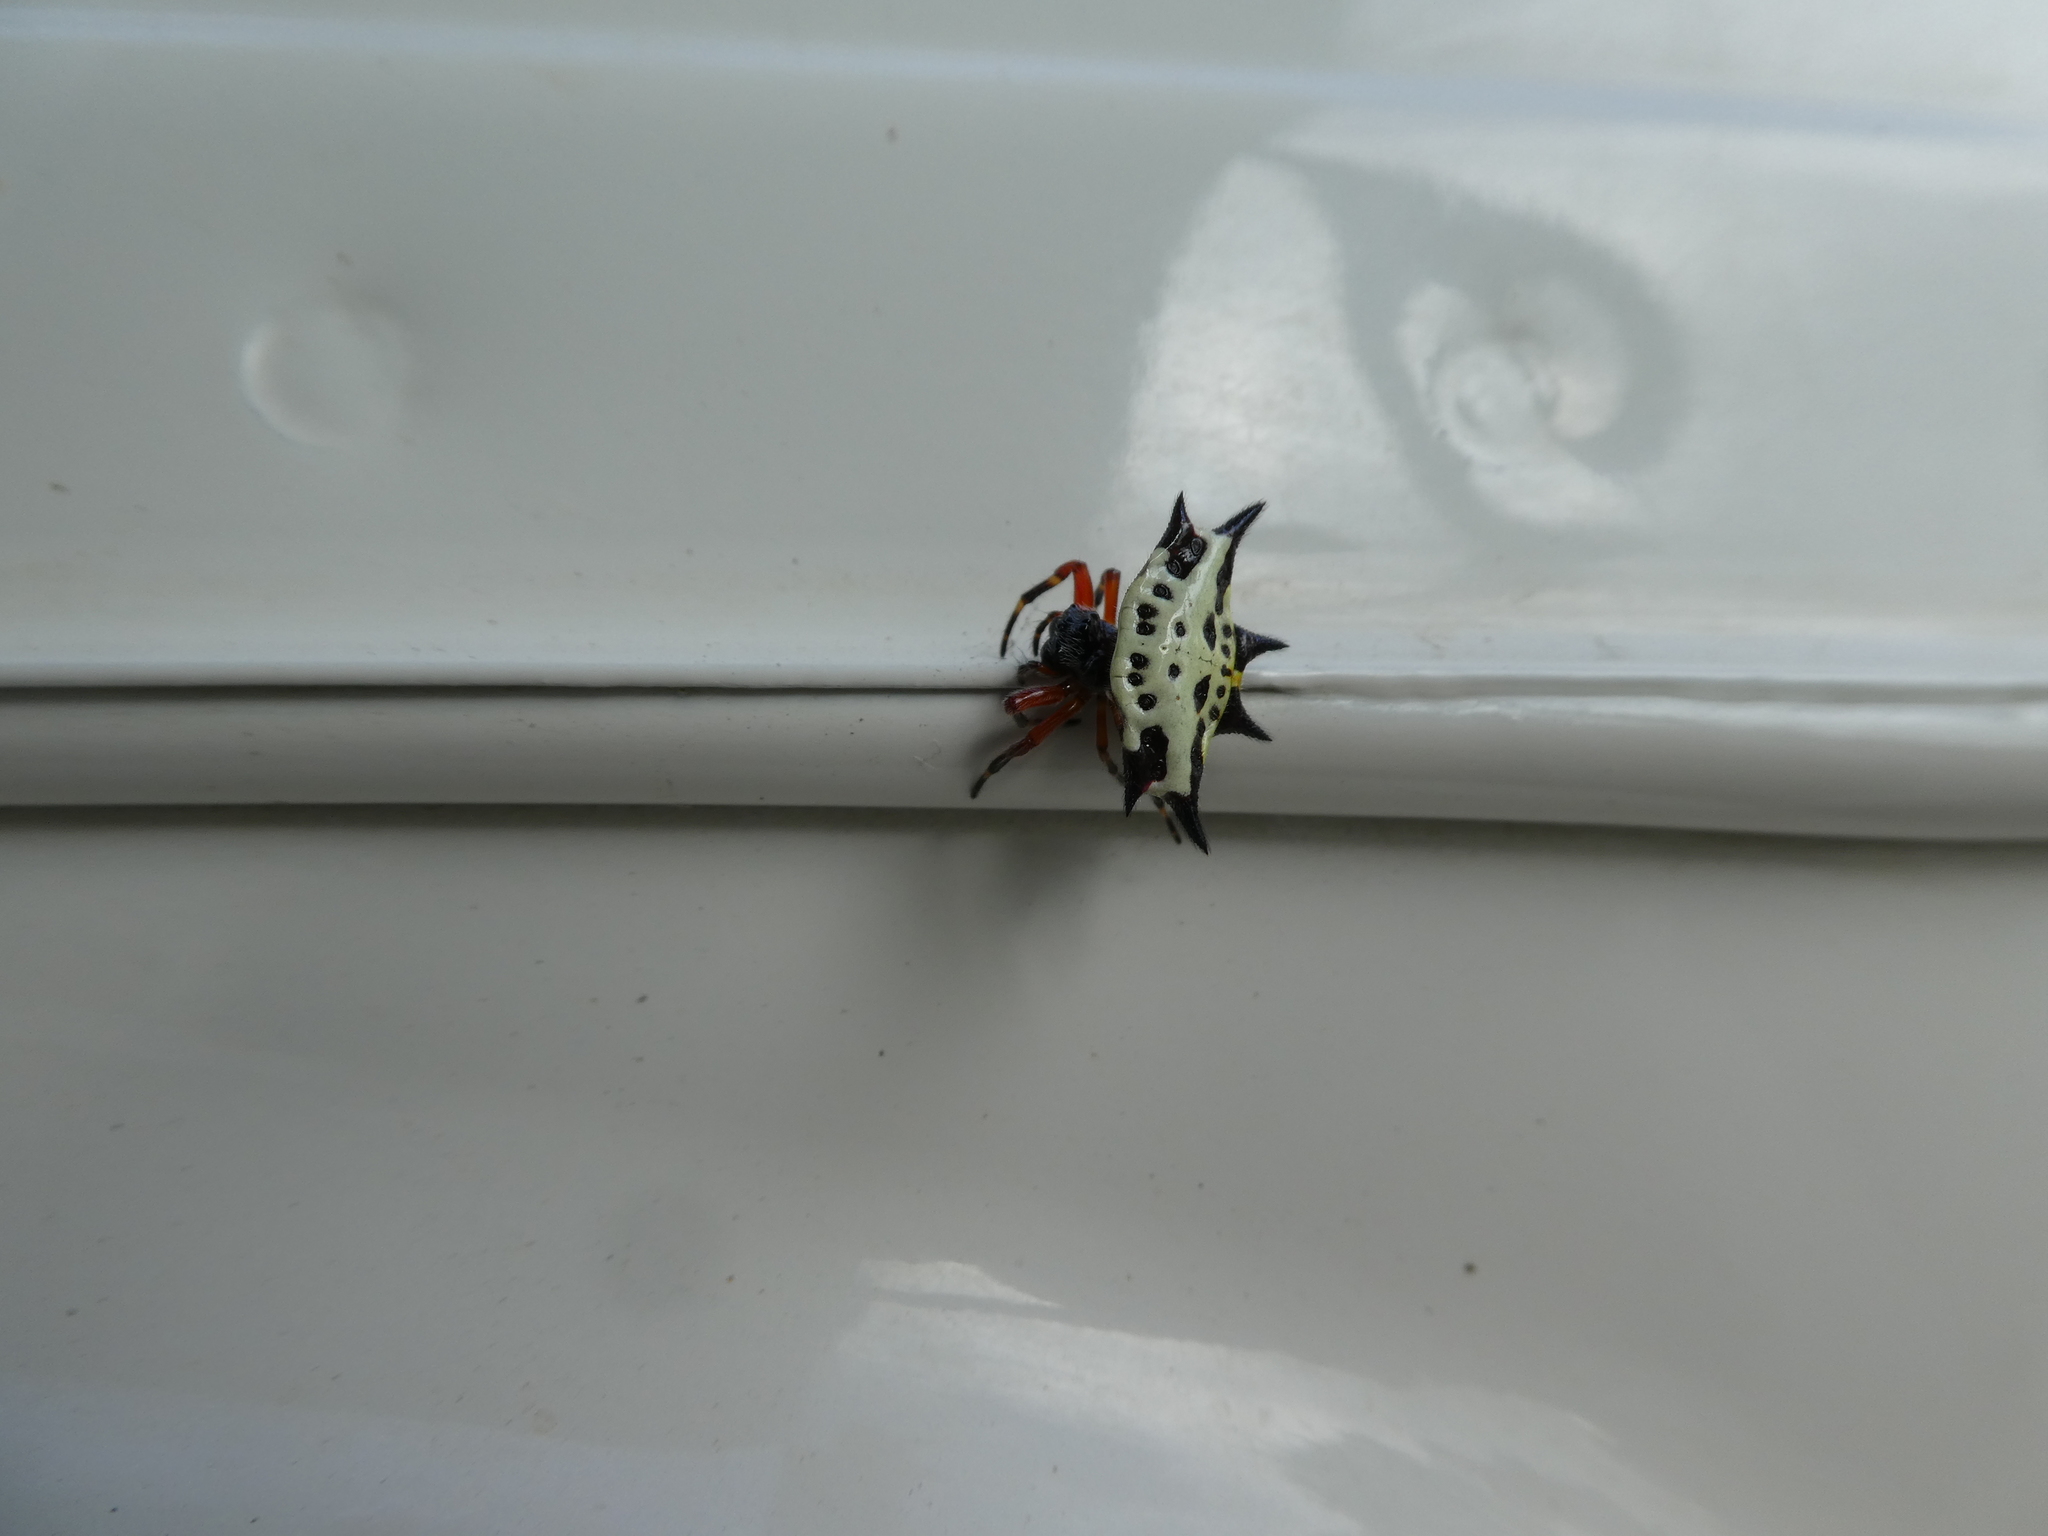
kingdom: Animalia
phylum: Arthropoda
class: Arachnida
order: Araneae
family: Araneidae
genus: Gasteracantha
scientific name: Gasteracantha sanguinolenta
